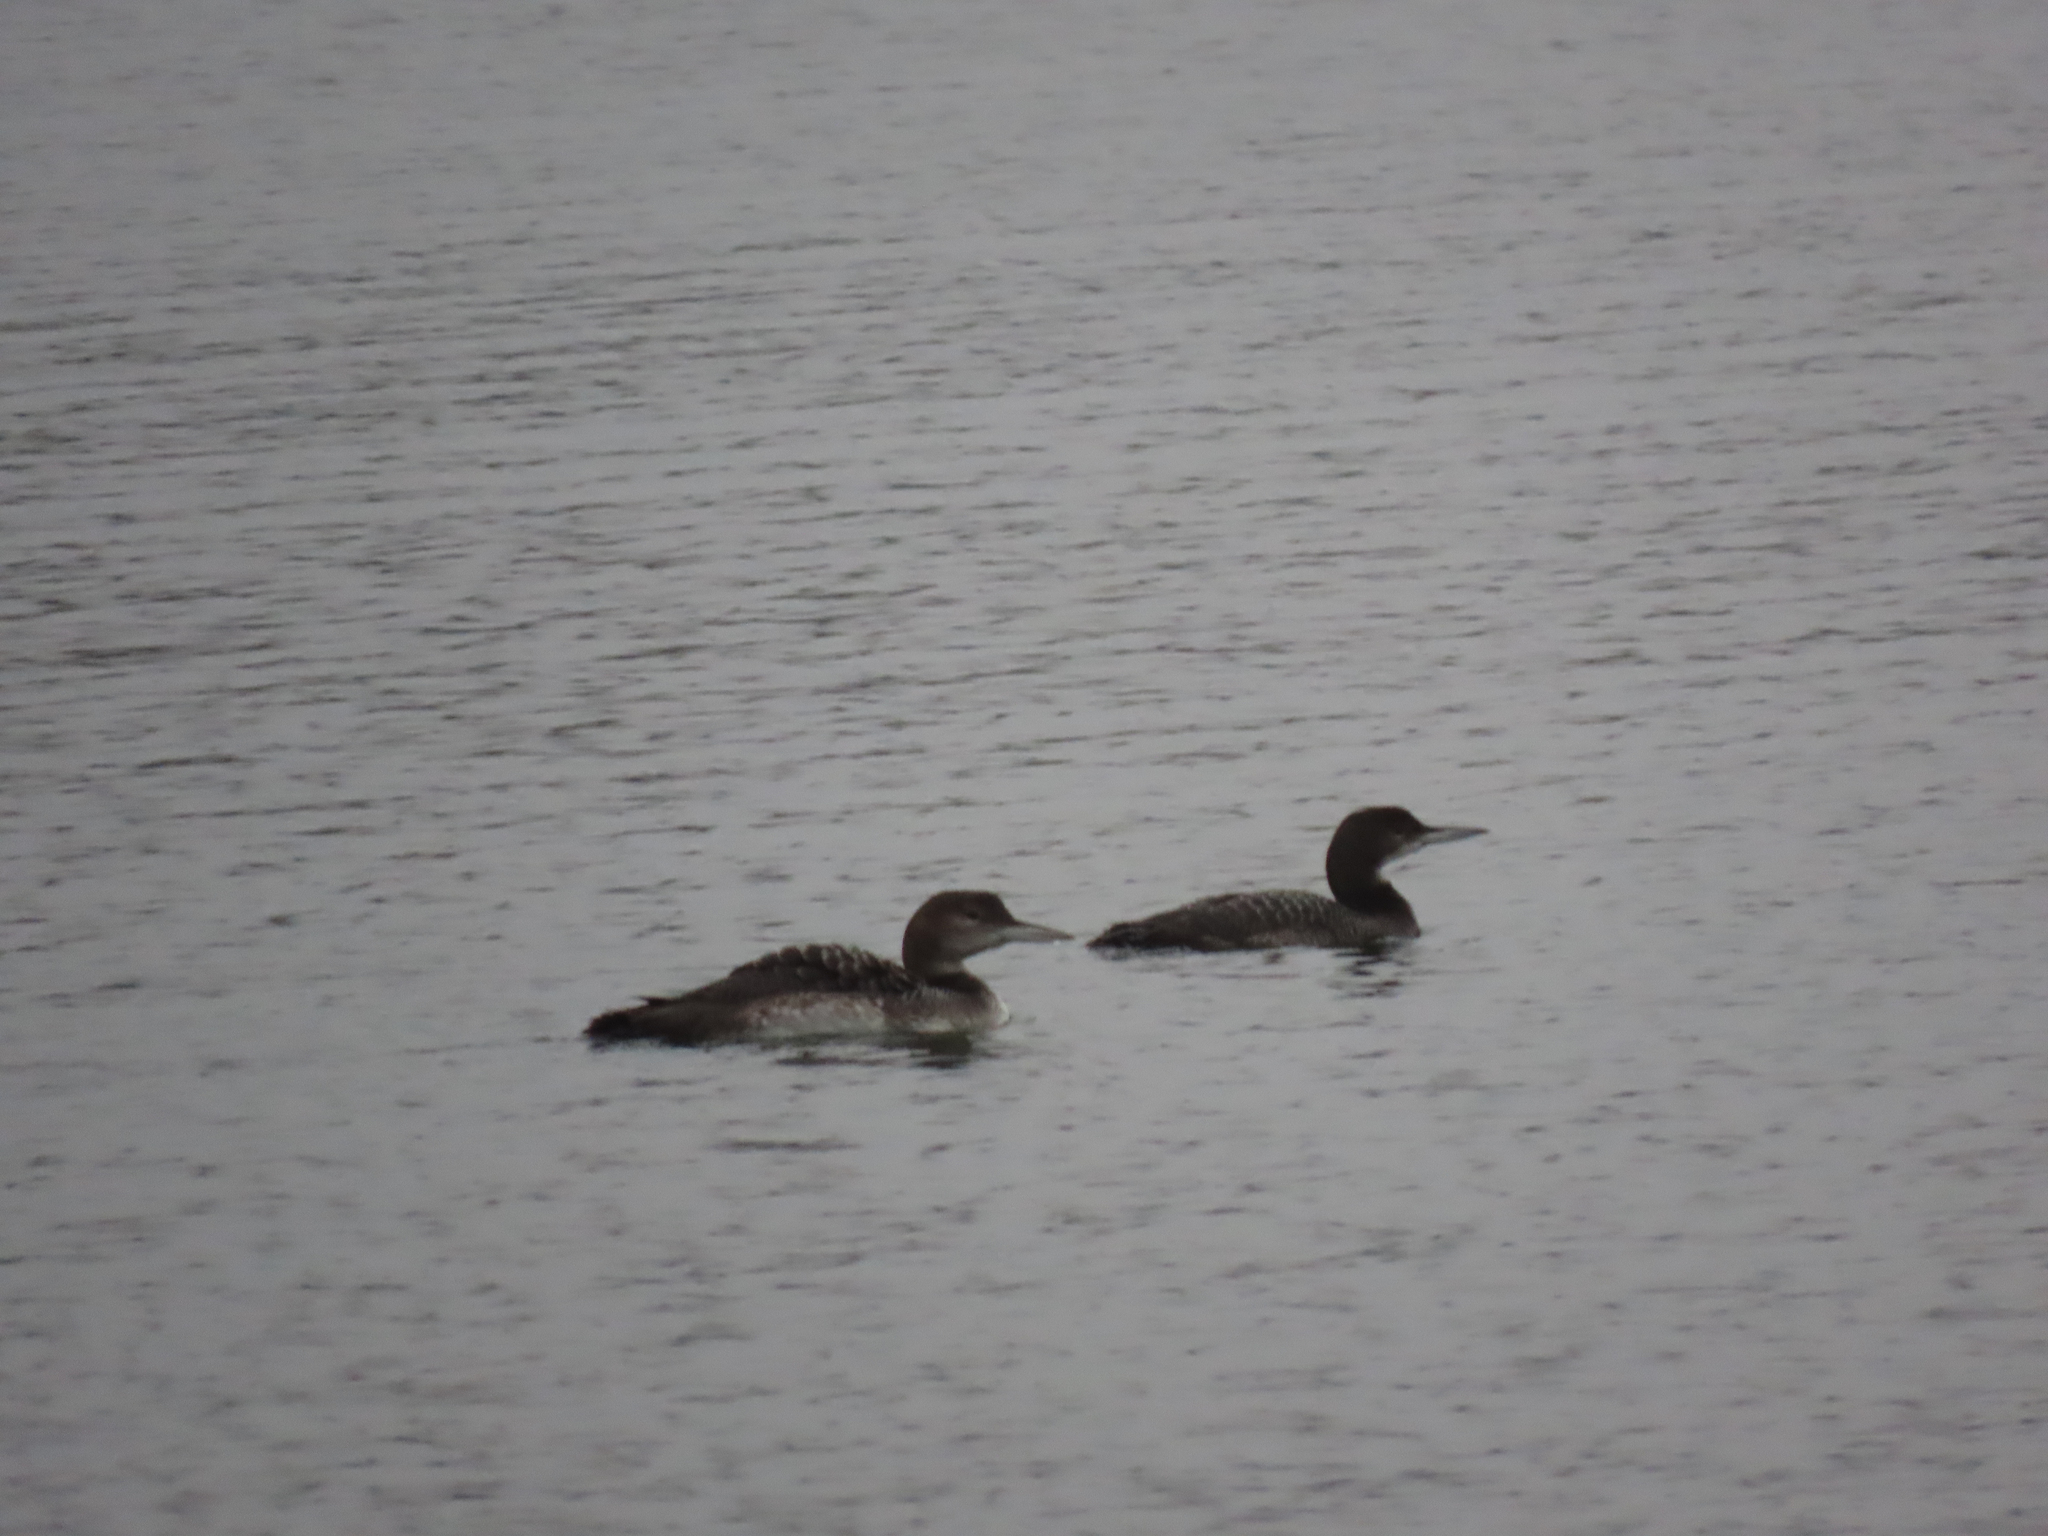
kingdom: Animalia
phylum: Chordata
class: Aves
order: Gaviiformes
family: Gaviidae
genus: Gavia
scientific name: Gavia immer
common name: Common loon
